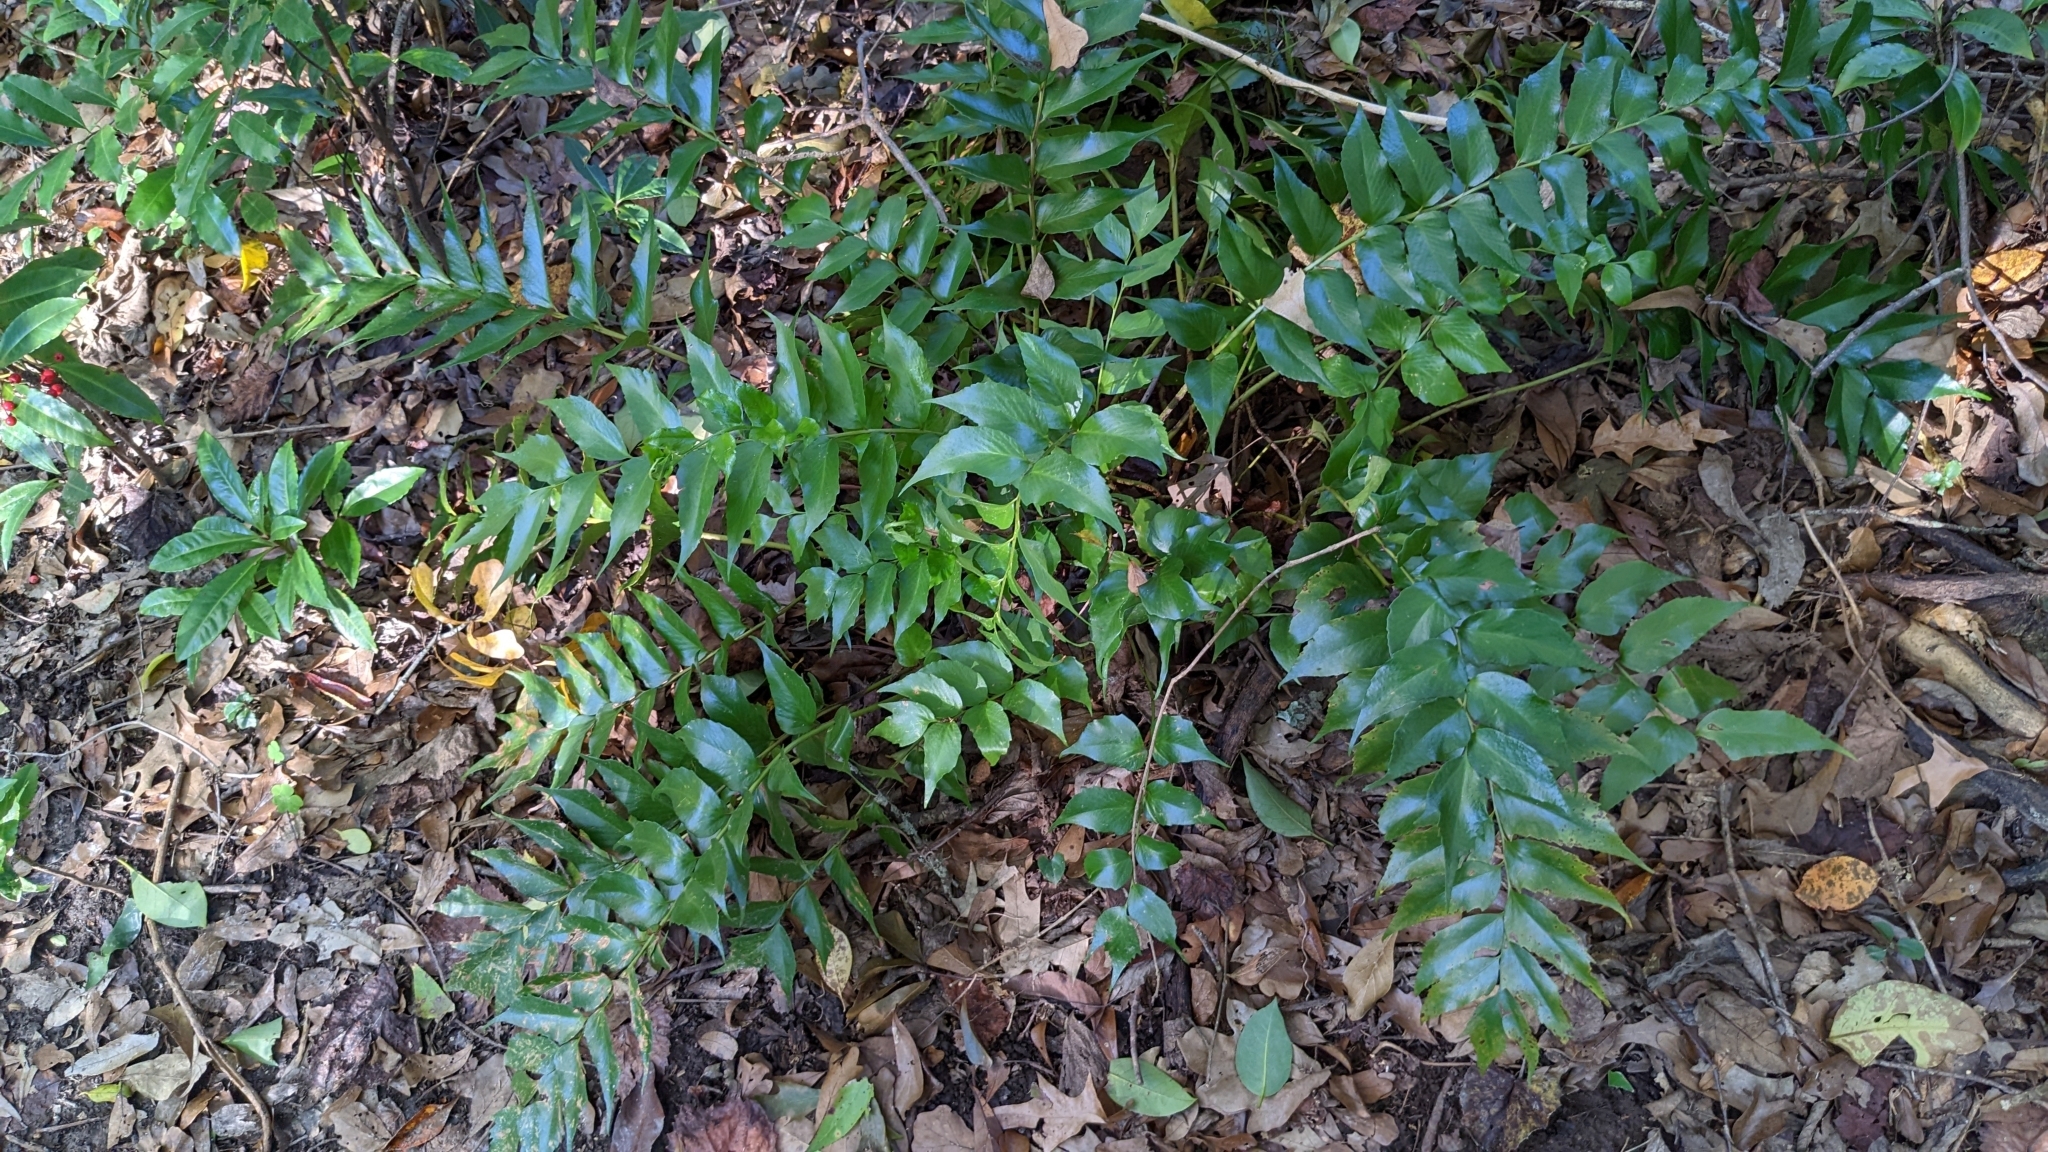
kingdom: Plantae
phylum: Tracheophyta
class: Polypodiopsida
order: Polypodiales
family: Dryopteridaceae
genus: Cyrtomium
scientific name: Cyrtomium falcatum
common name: House holly-fern
